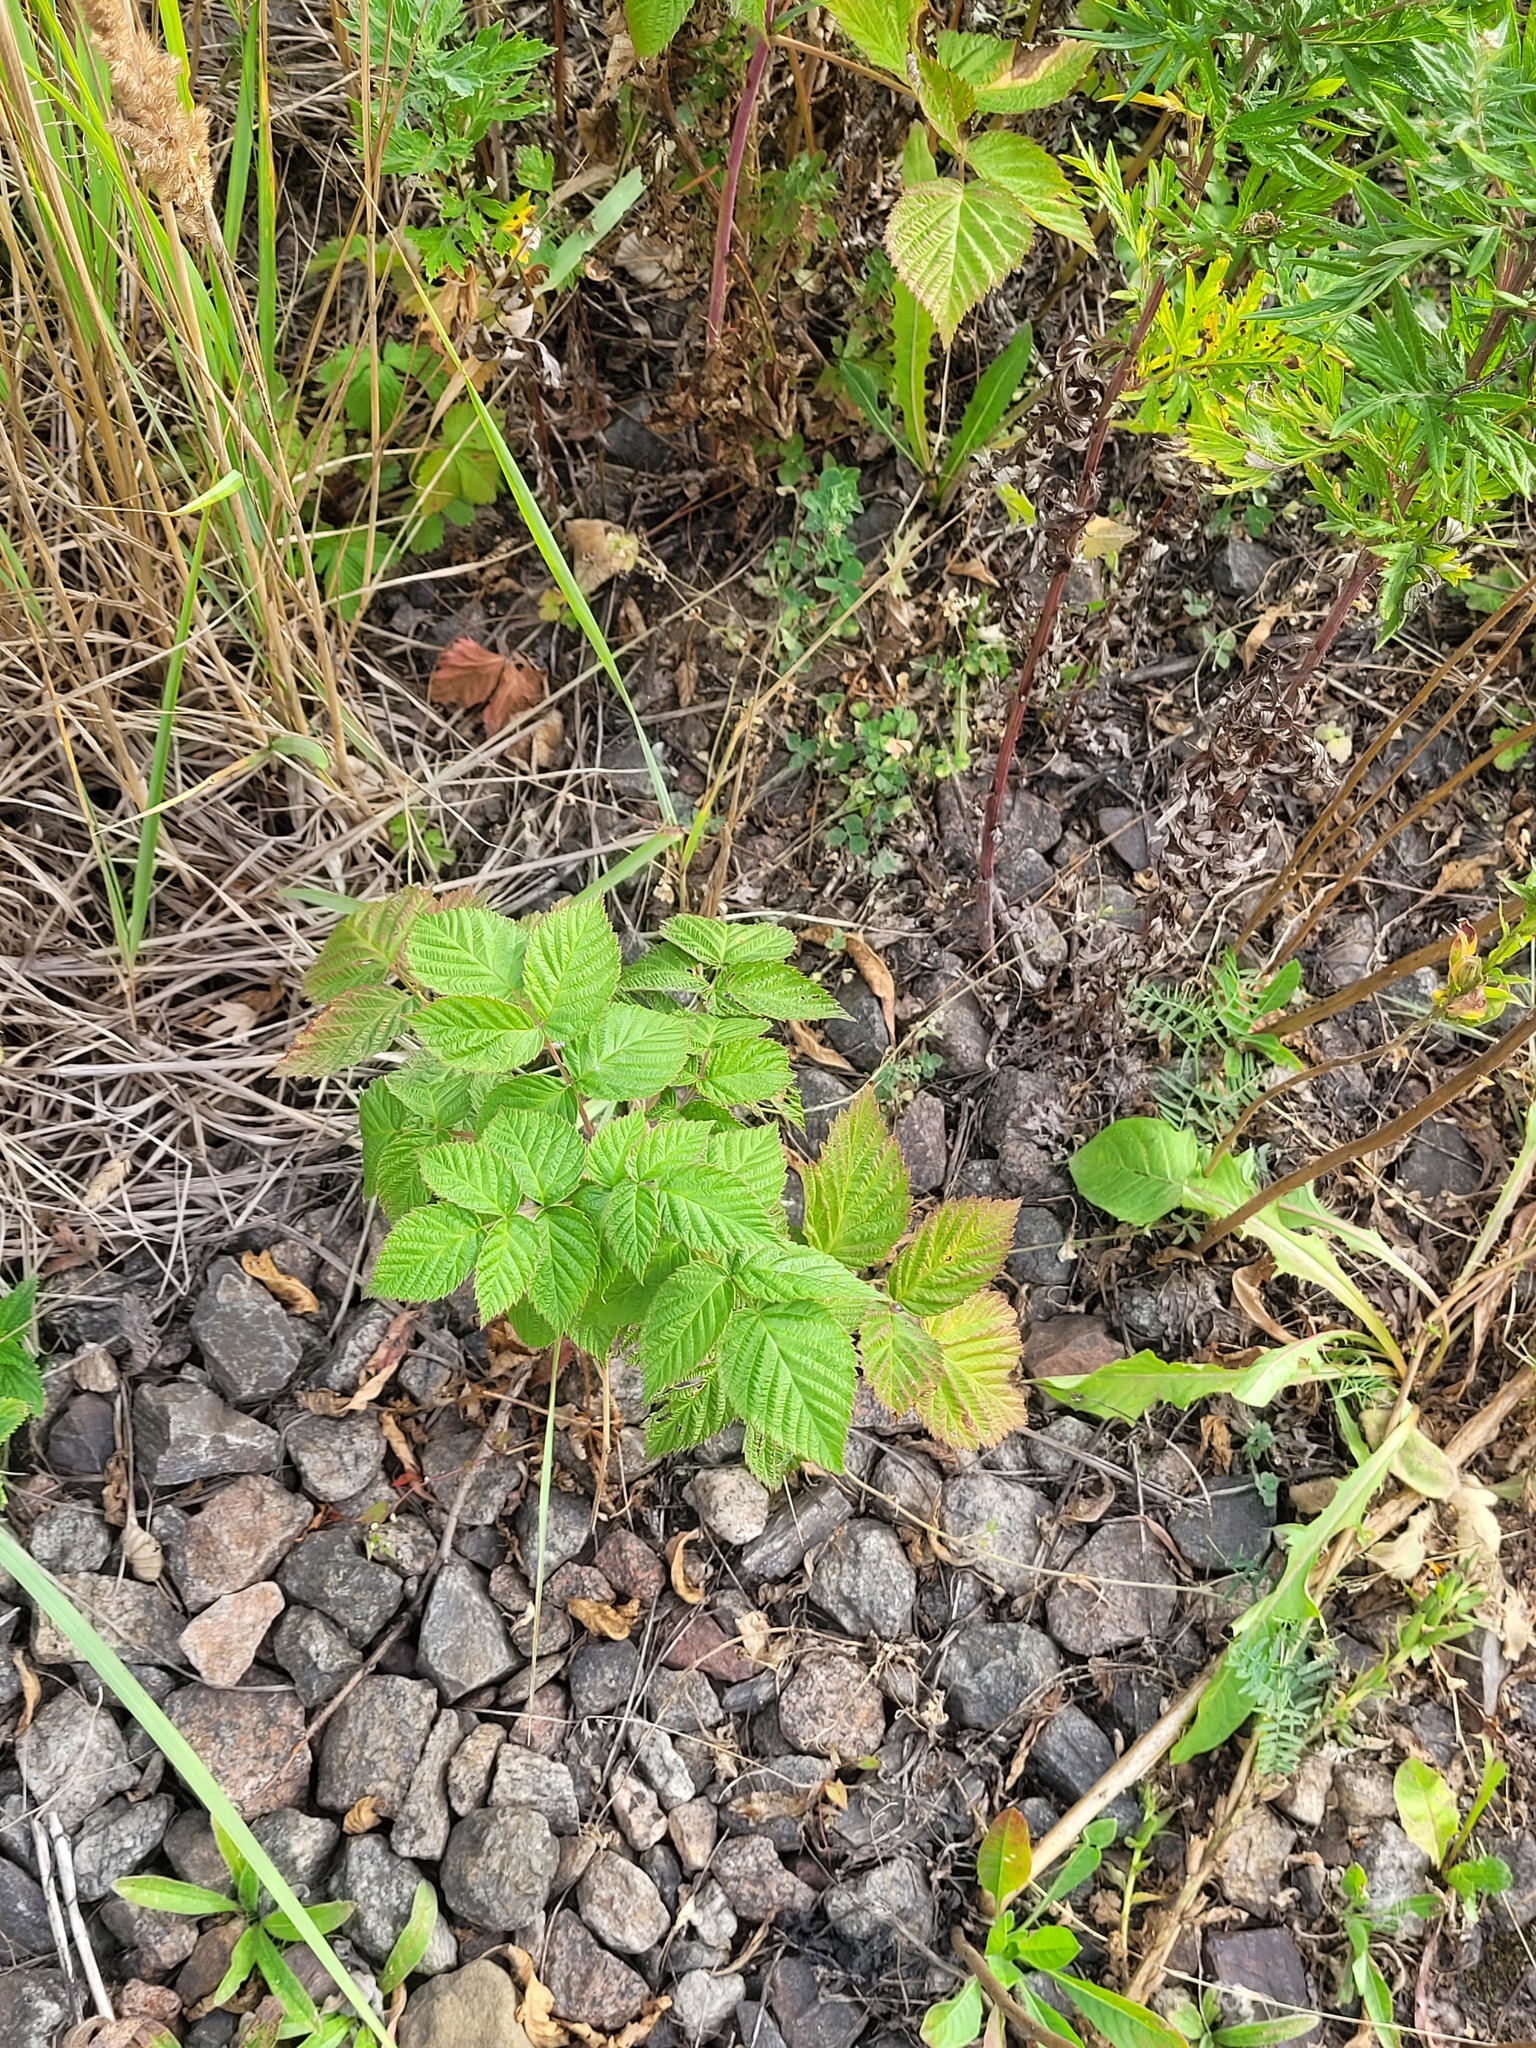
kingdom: Plantae
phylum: Tracheophyta
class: Magnoliopsida
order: Rosales
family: Rosaceae
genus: Rubus
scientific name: Rubus idaeus
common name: Raspberry
